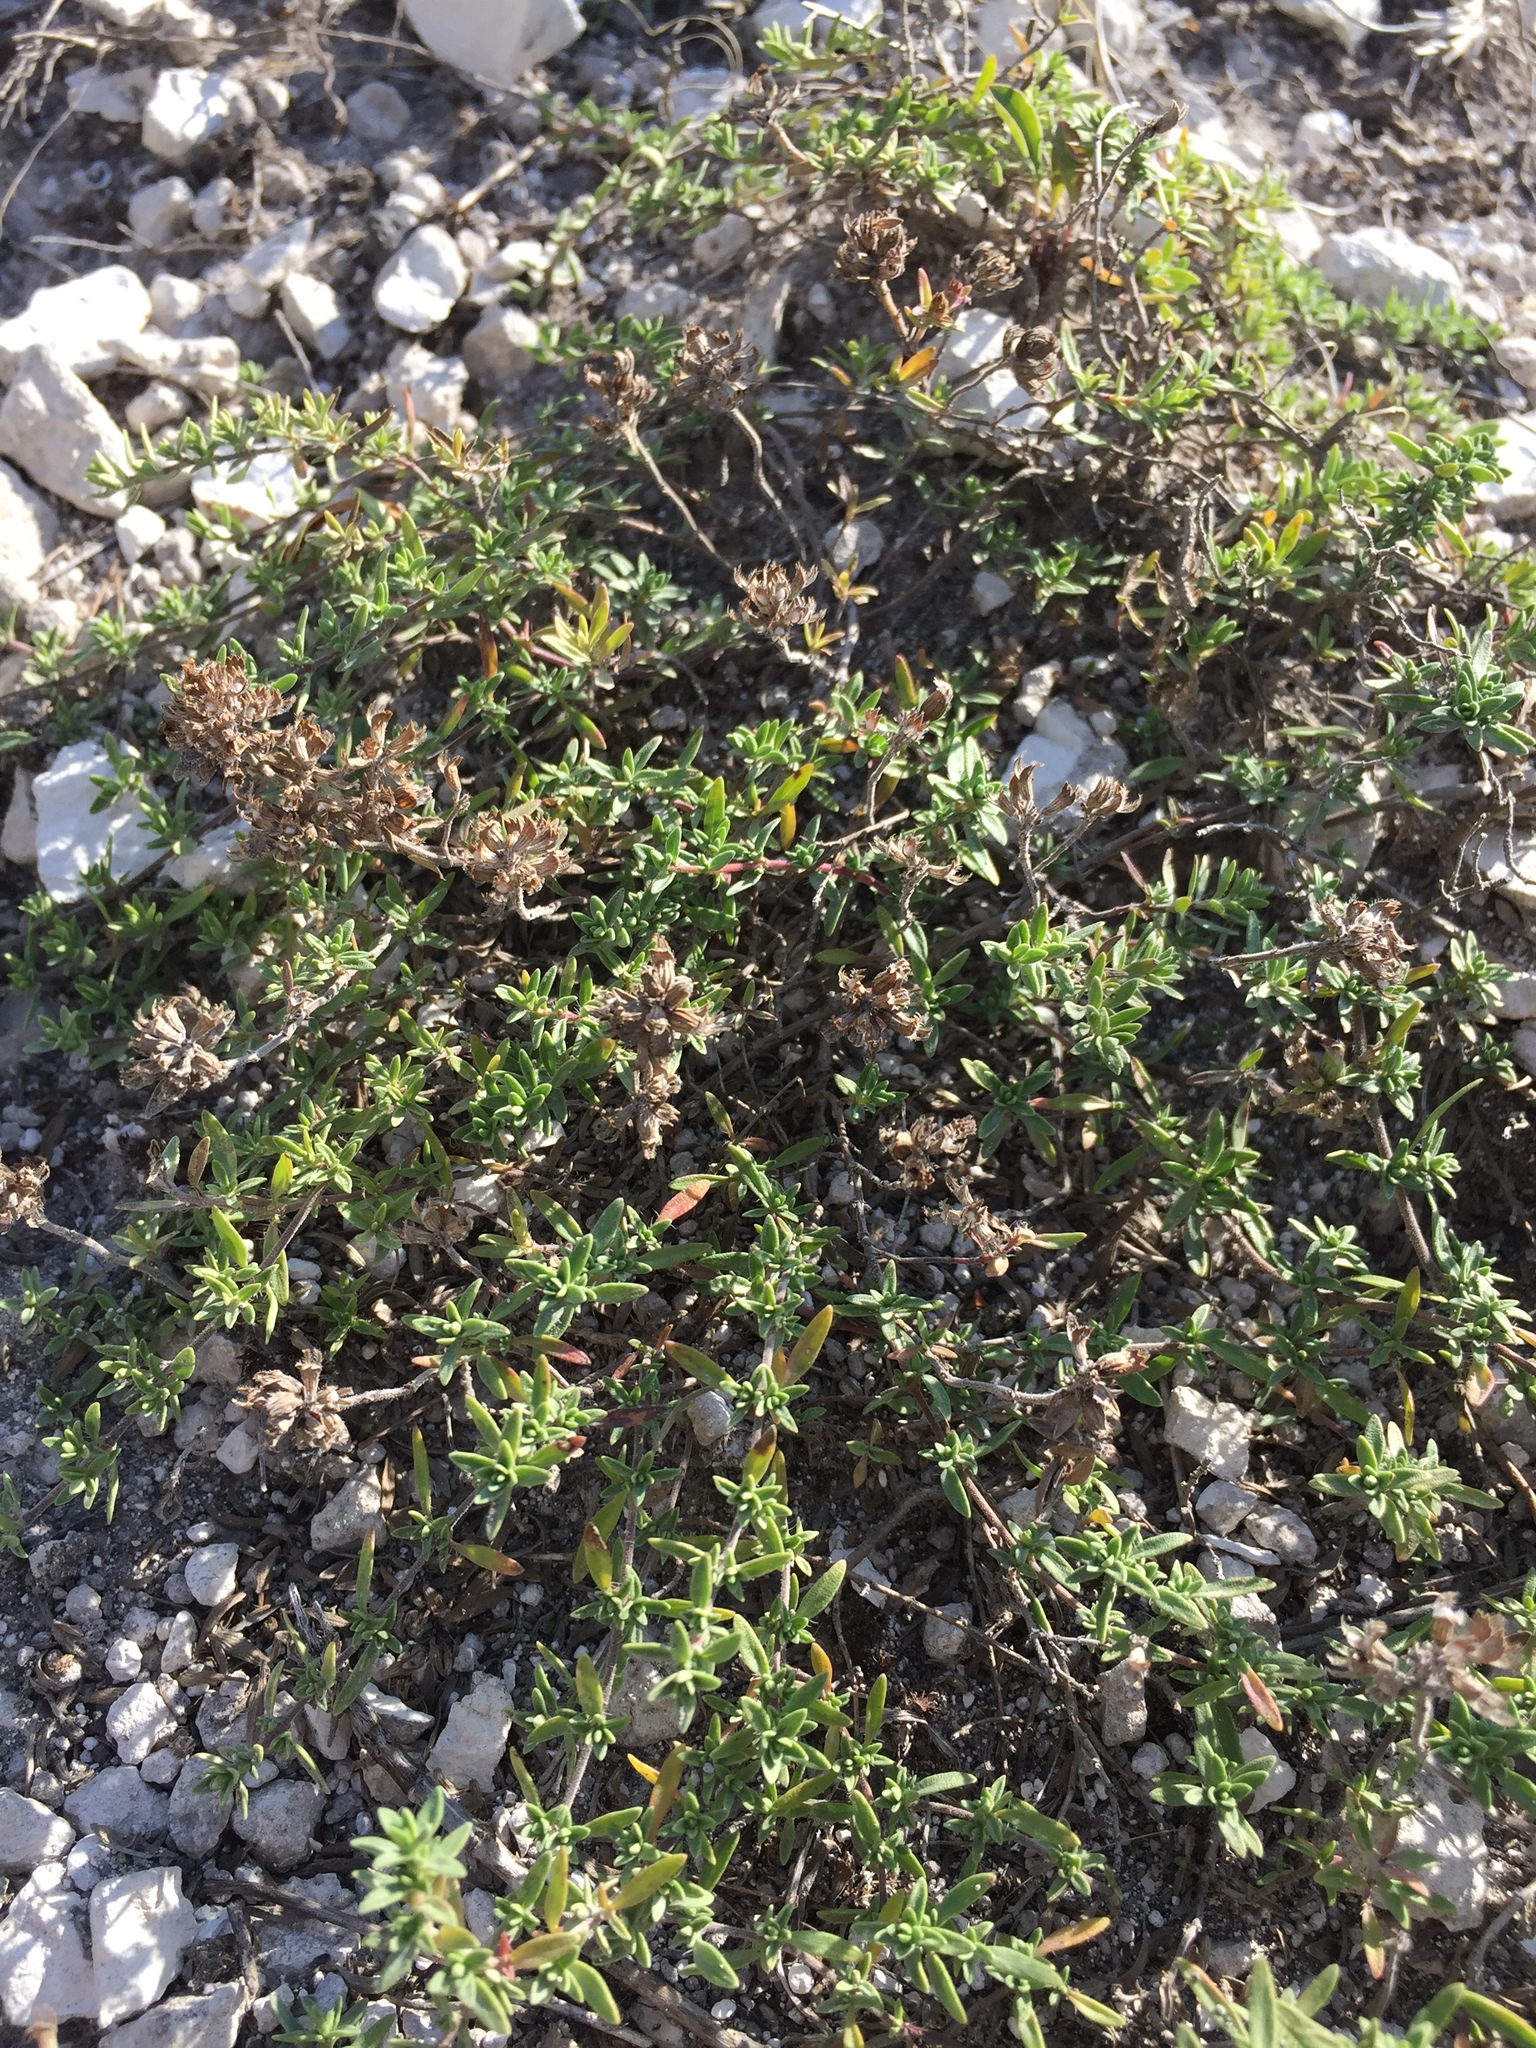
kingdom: Plantae
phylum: Tracheophyta
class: Magnoliopsida
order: Lamiales
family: Lamiaceae
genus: Thymus
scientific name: Thymus calcareus
